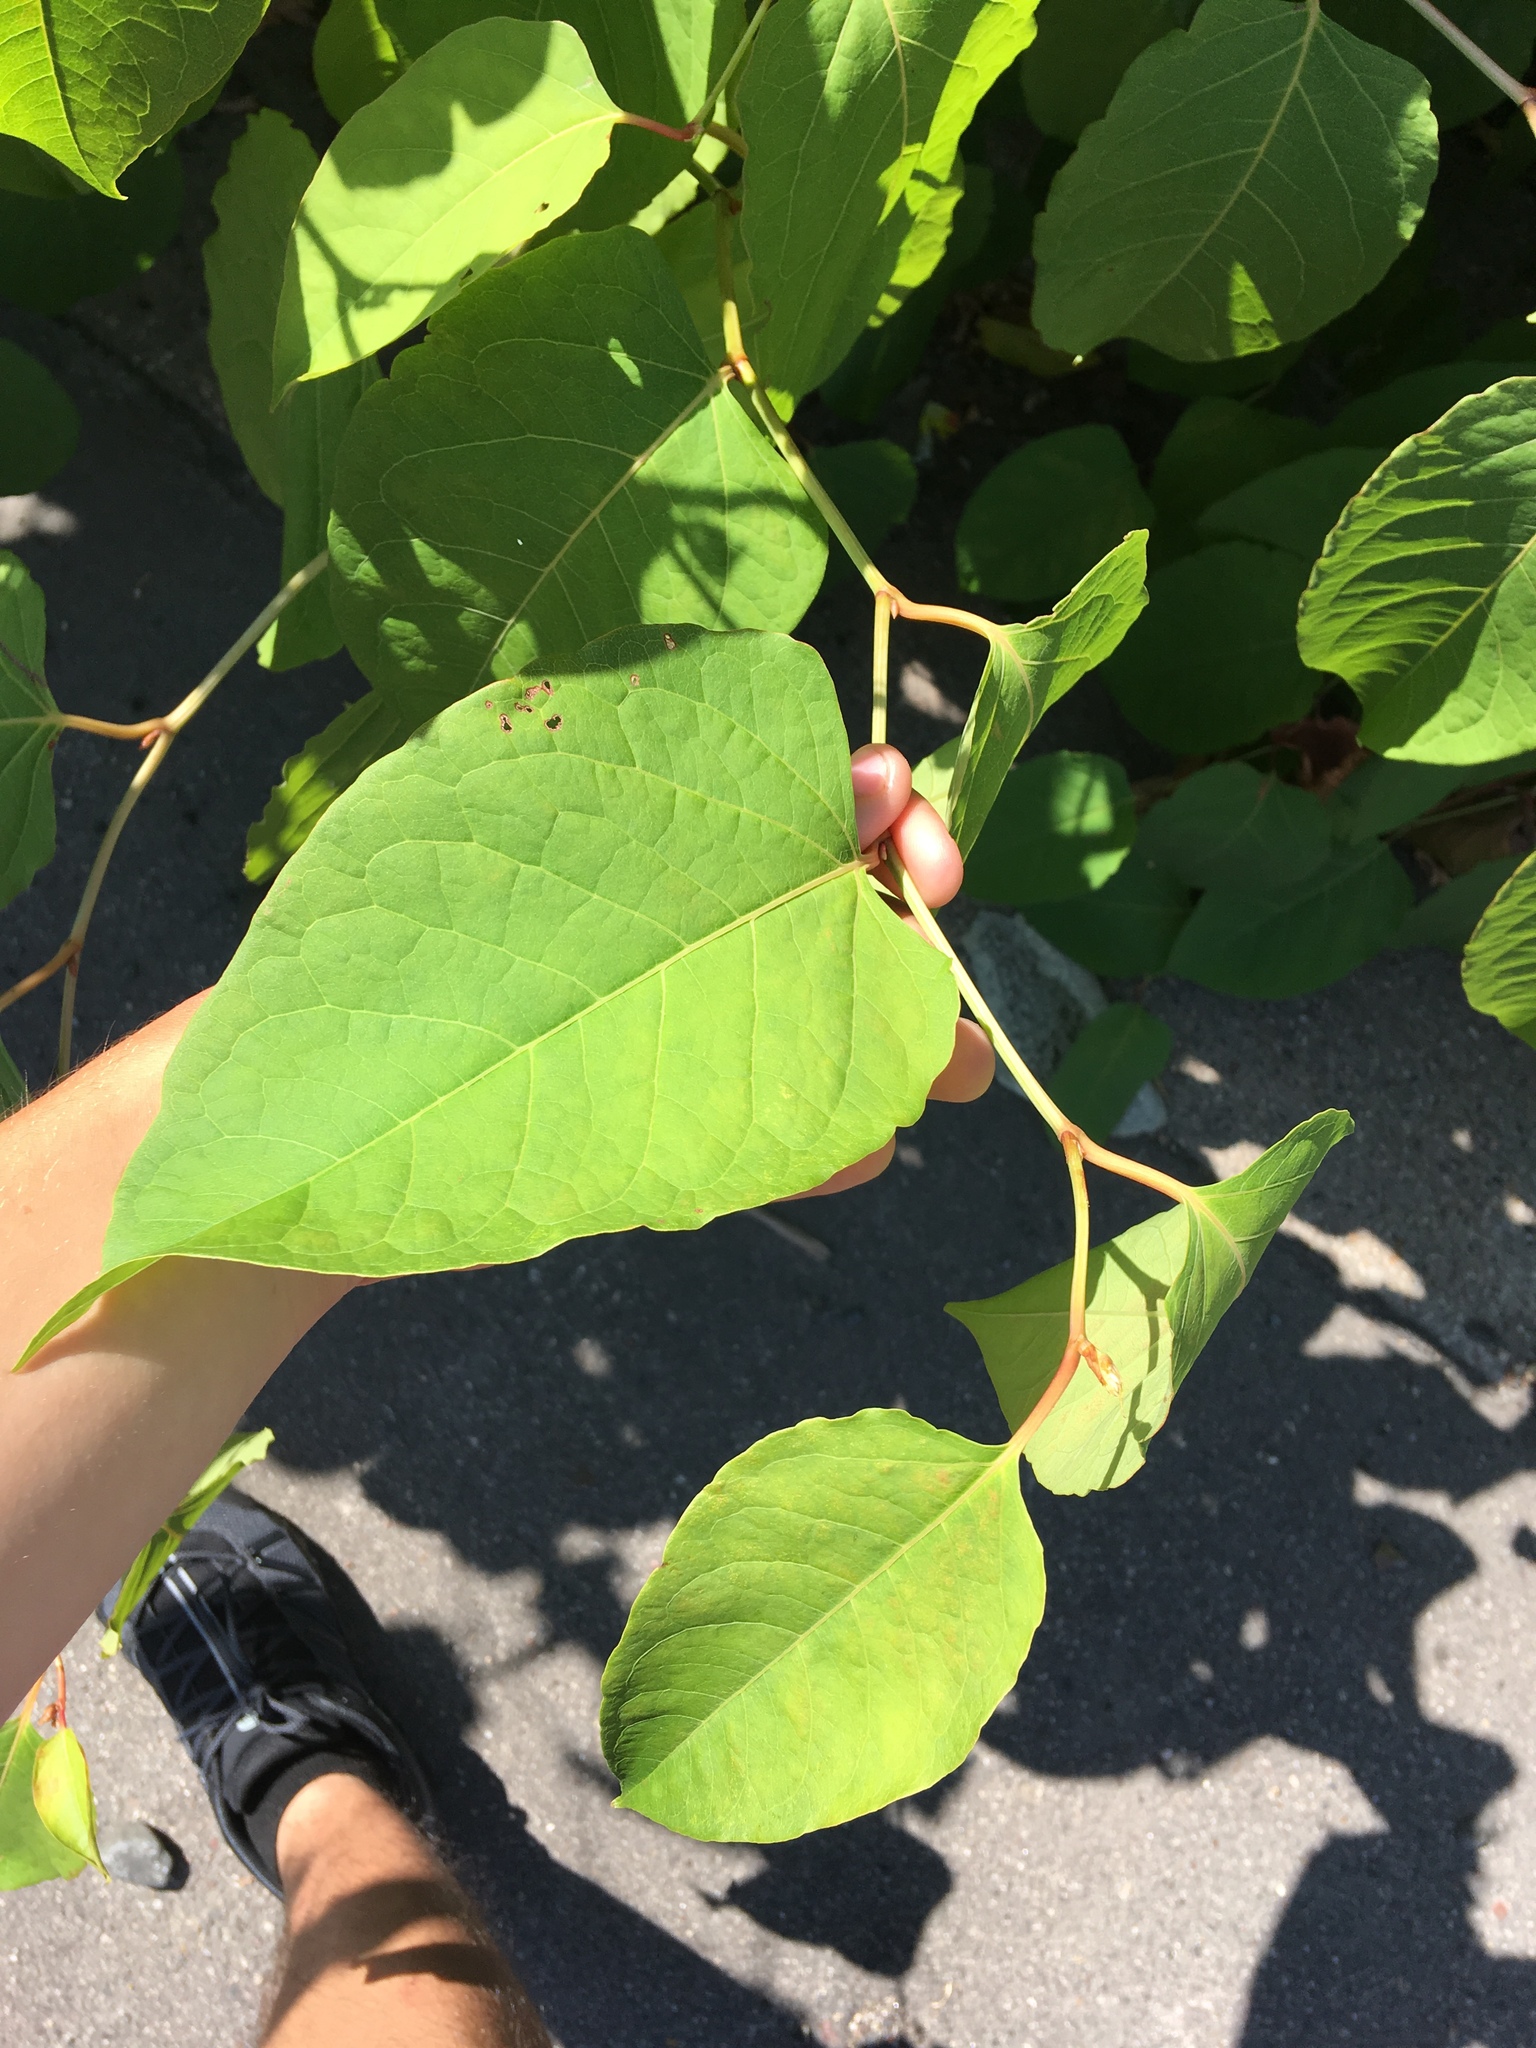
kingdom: Plantae
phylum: Tracheophyta
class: Magnoliopsida
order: Caryophyllales
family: Polygonaceae
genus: Reynoutria
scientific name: Reynoutria japonica
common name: Japanese knotweed
